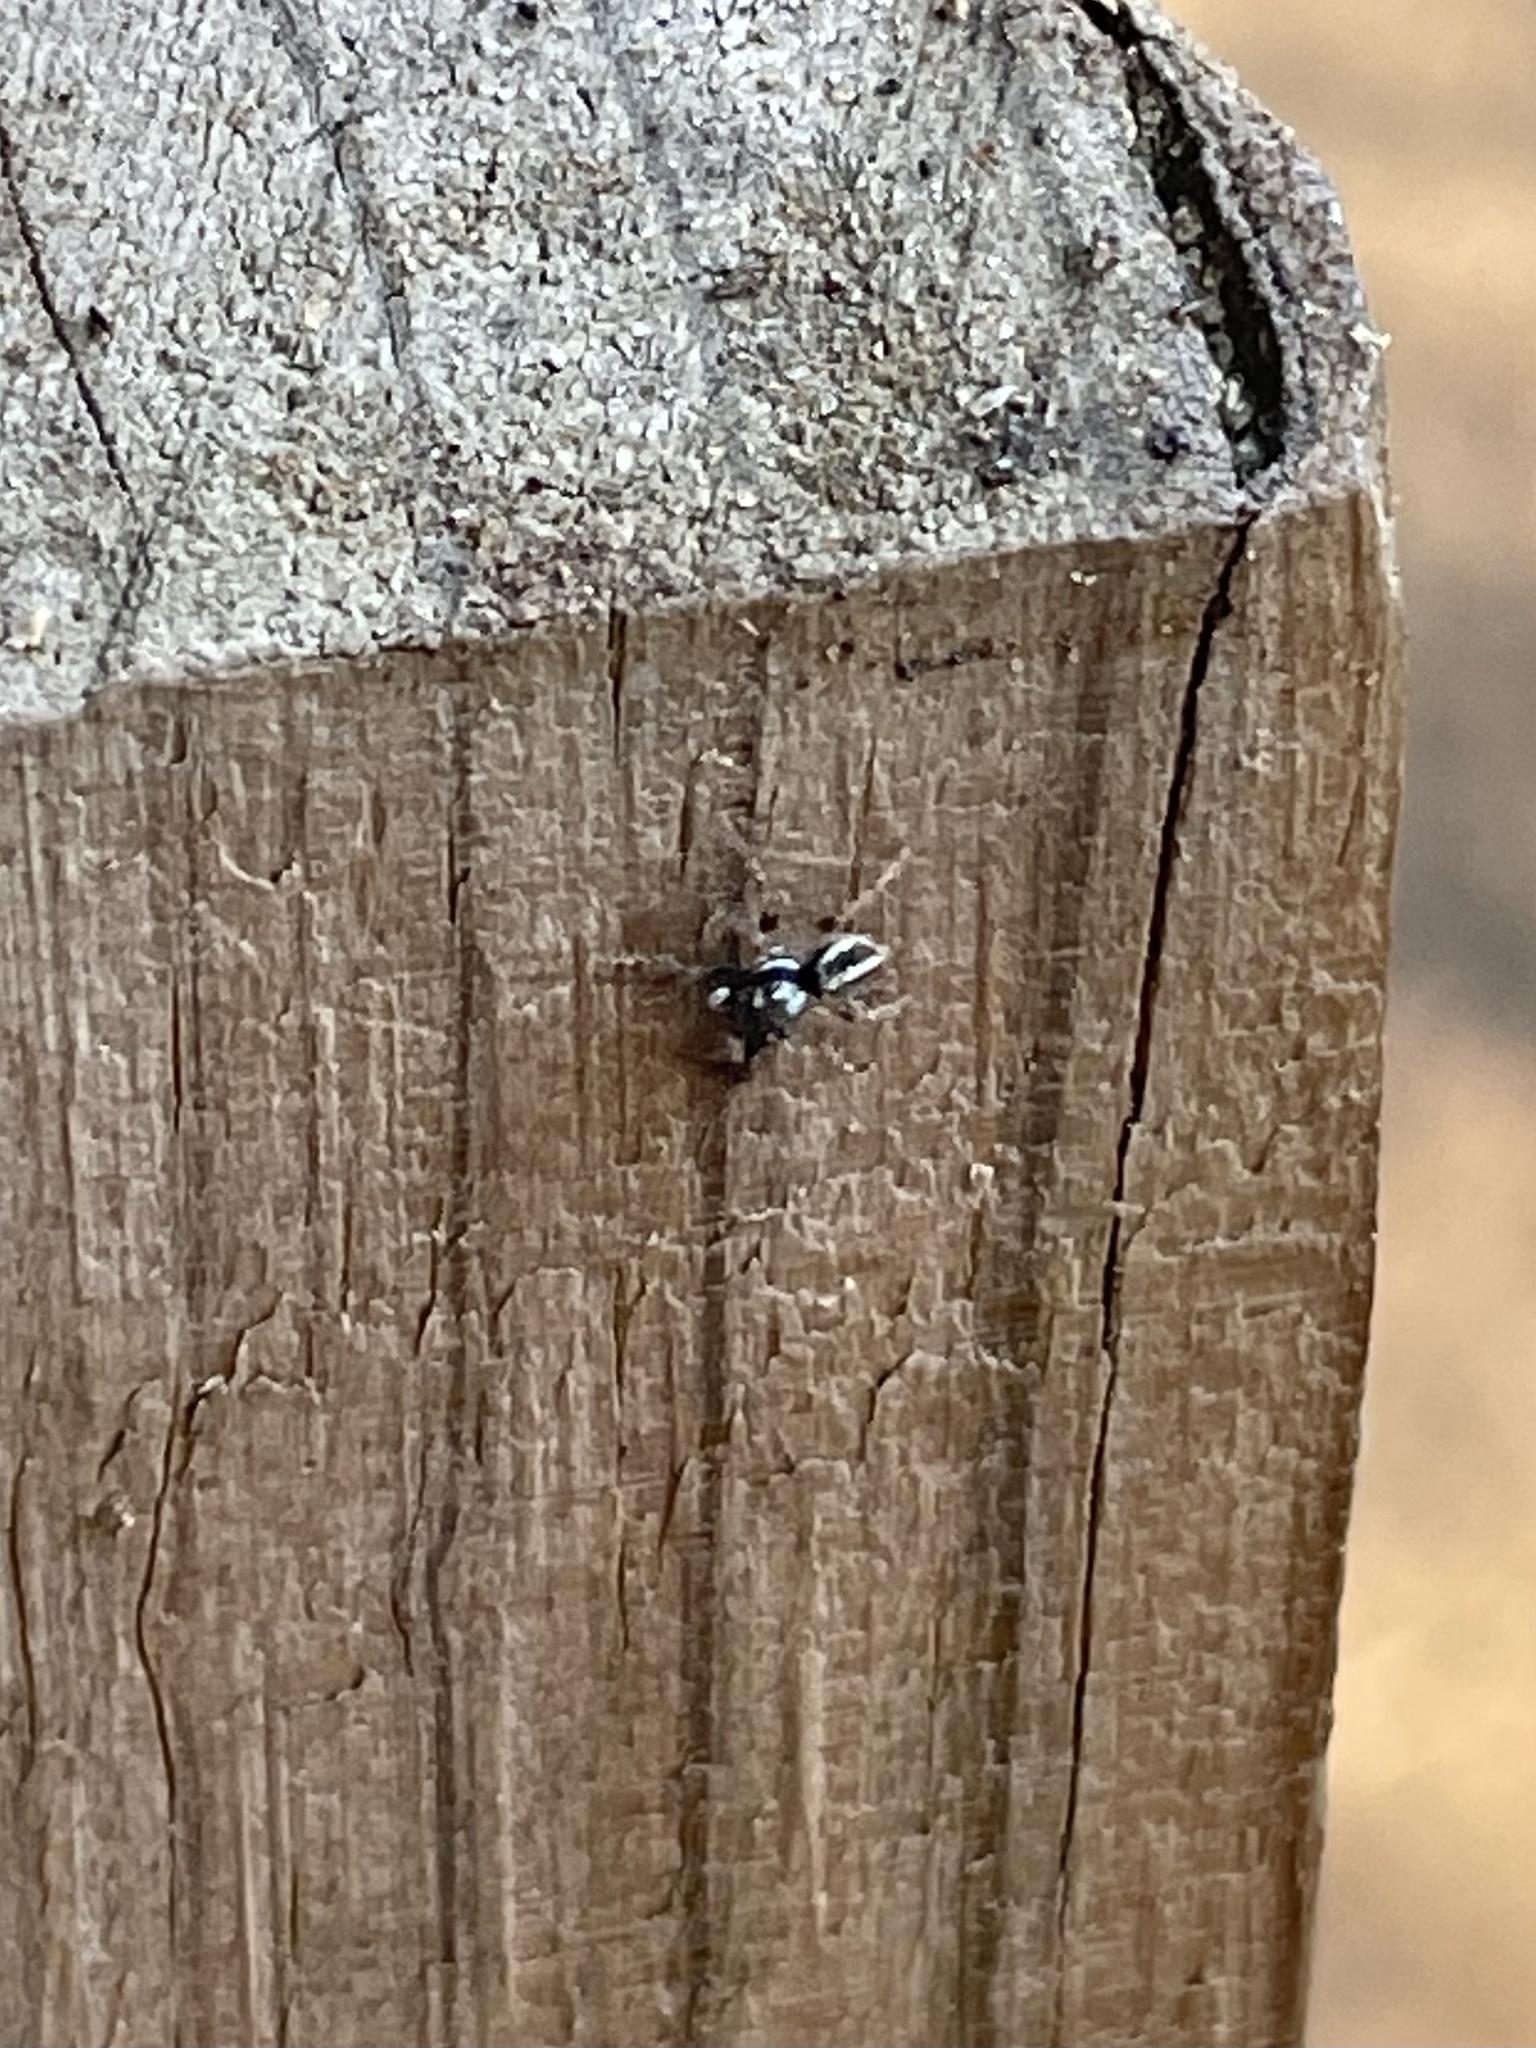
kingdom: Animalia
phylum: Arthropoda
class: Arachnida
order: Araneae
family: Salticidae
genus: Anasaitis
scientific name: Anasaitis canosa
